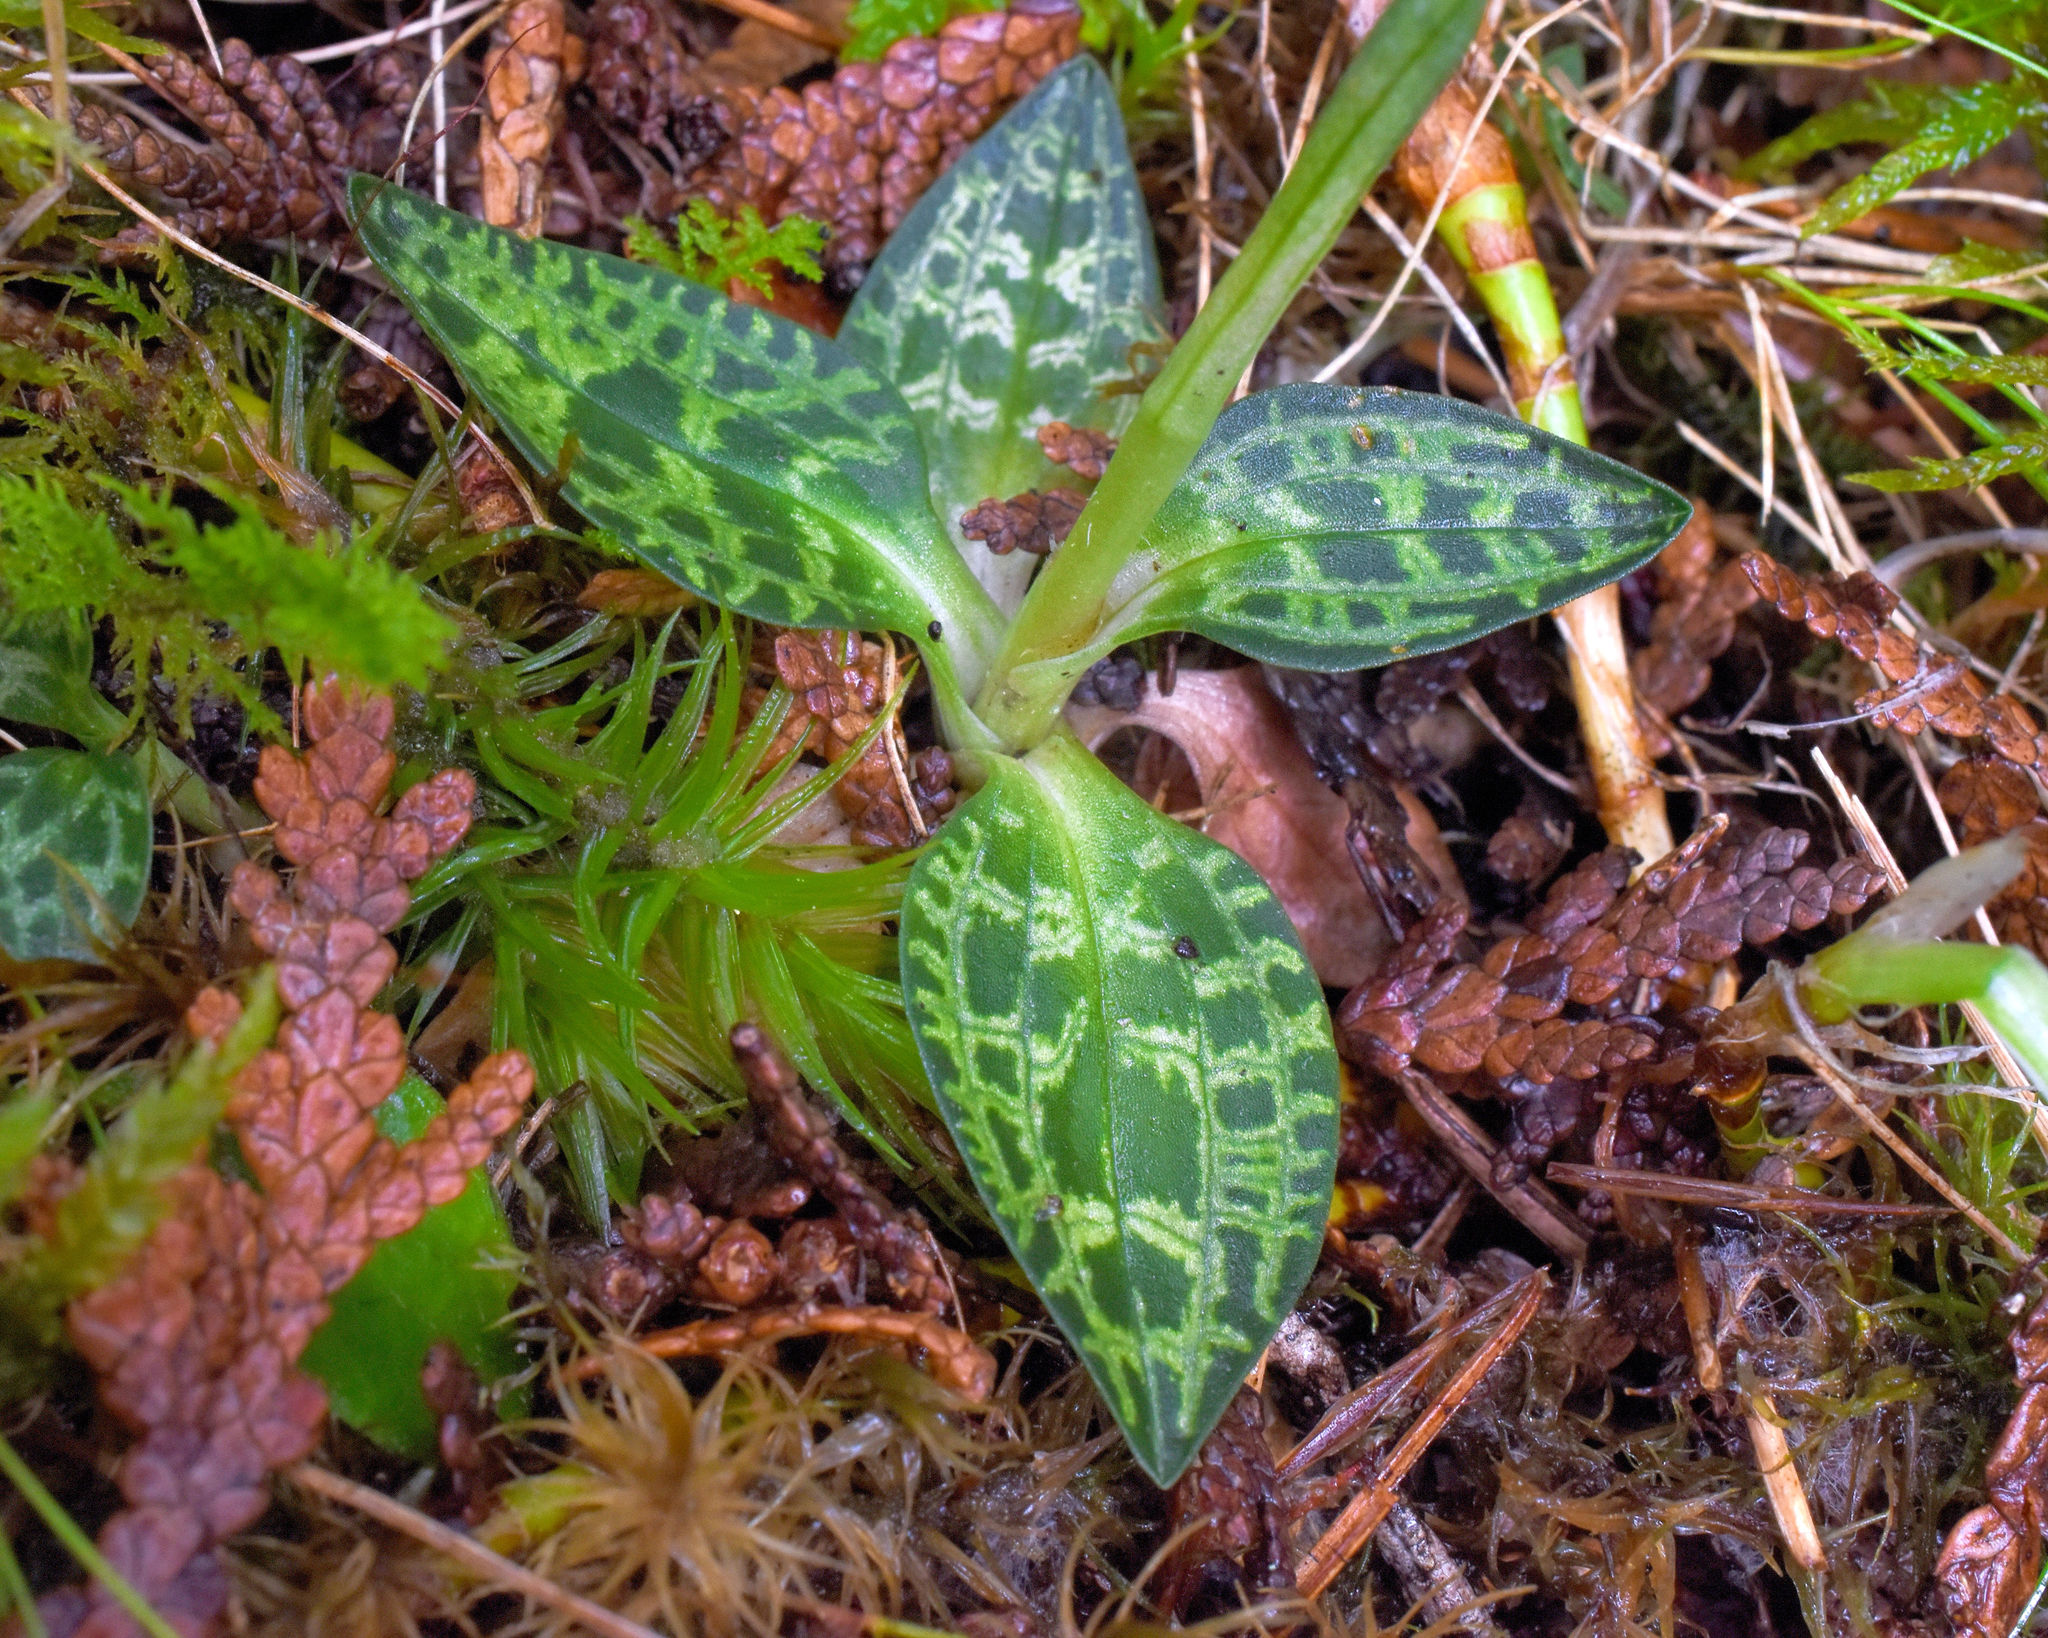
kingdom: Plantae
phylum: Tracheophyta
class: Liliopsida
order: Asparagales
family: Orchidaceae
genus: Goodyera
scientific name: Goodyera repens
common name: Creeping lady's-tresses
